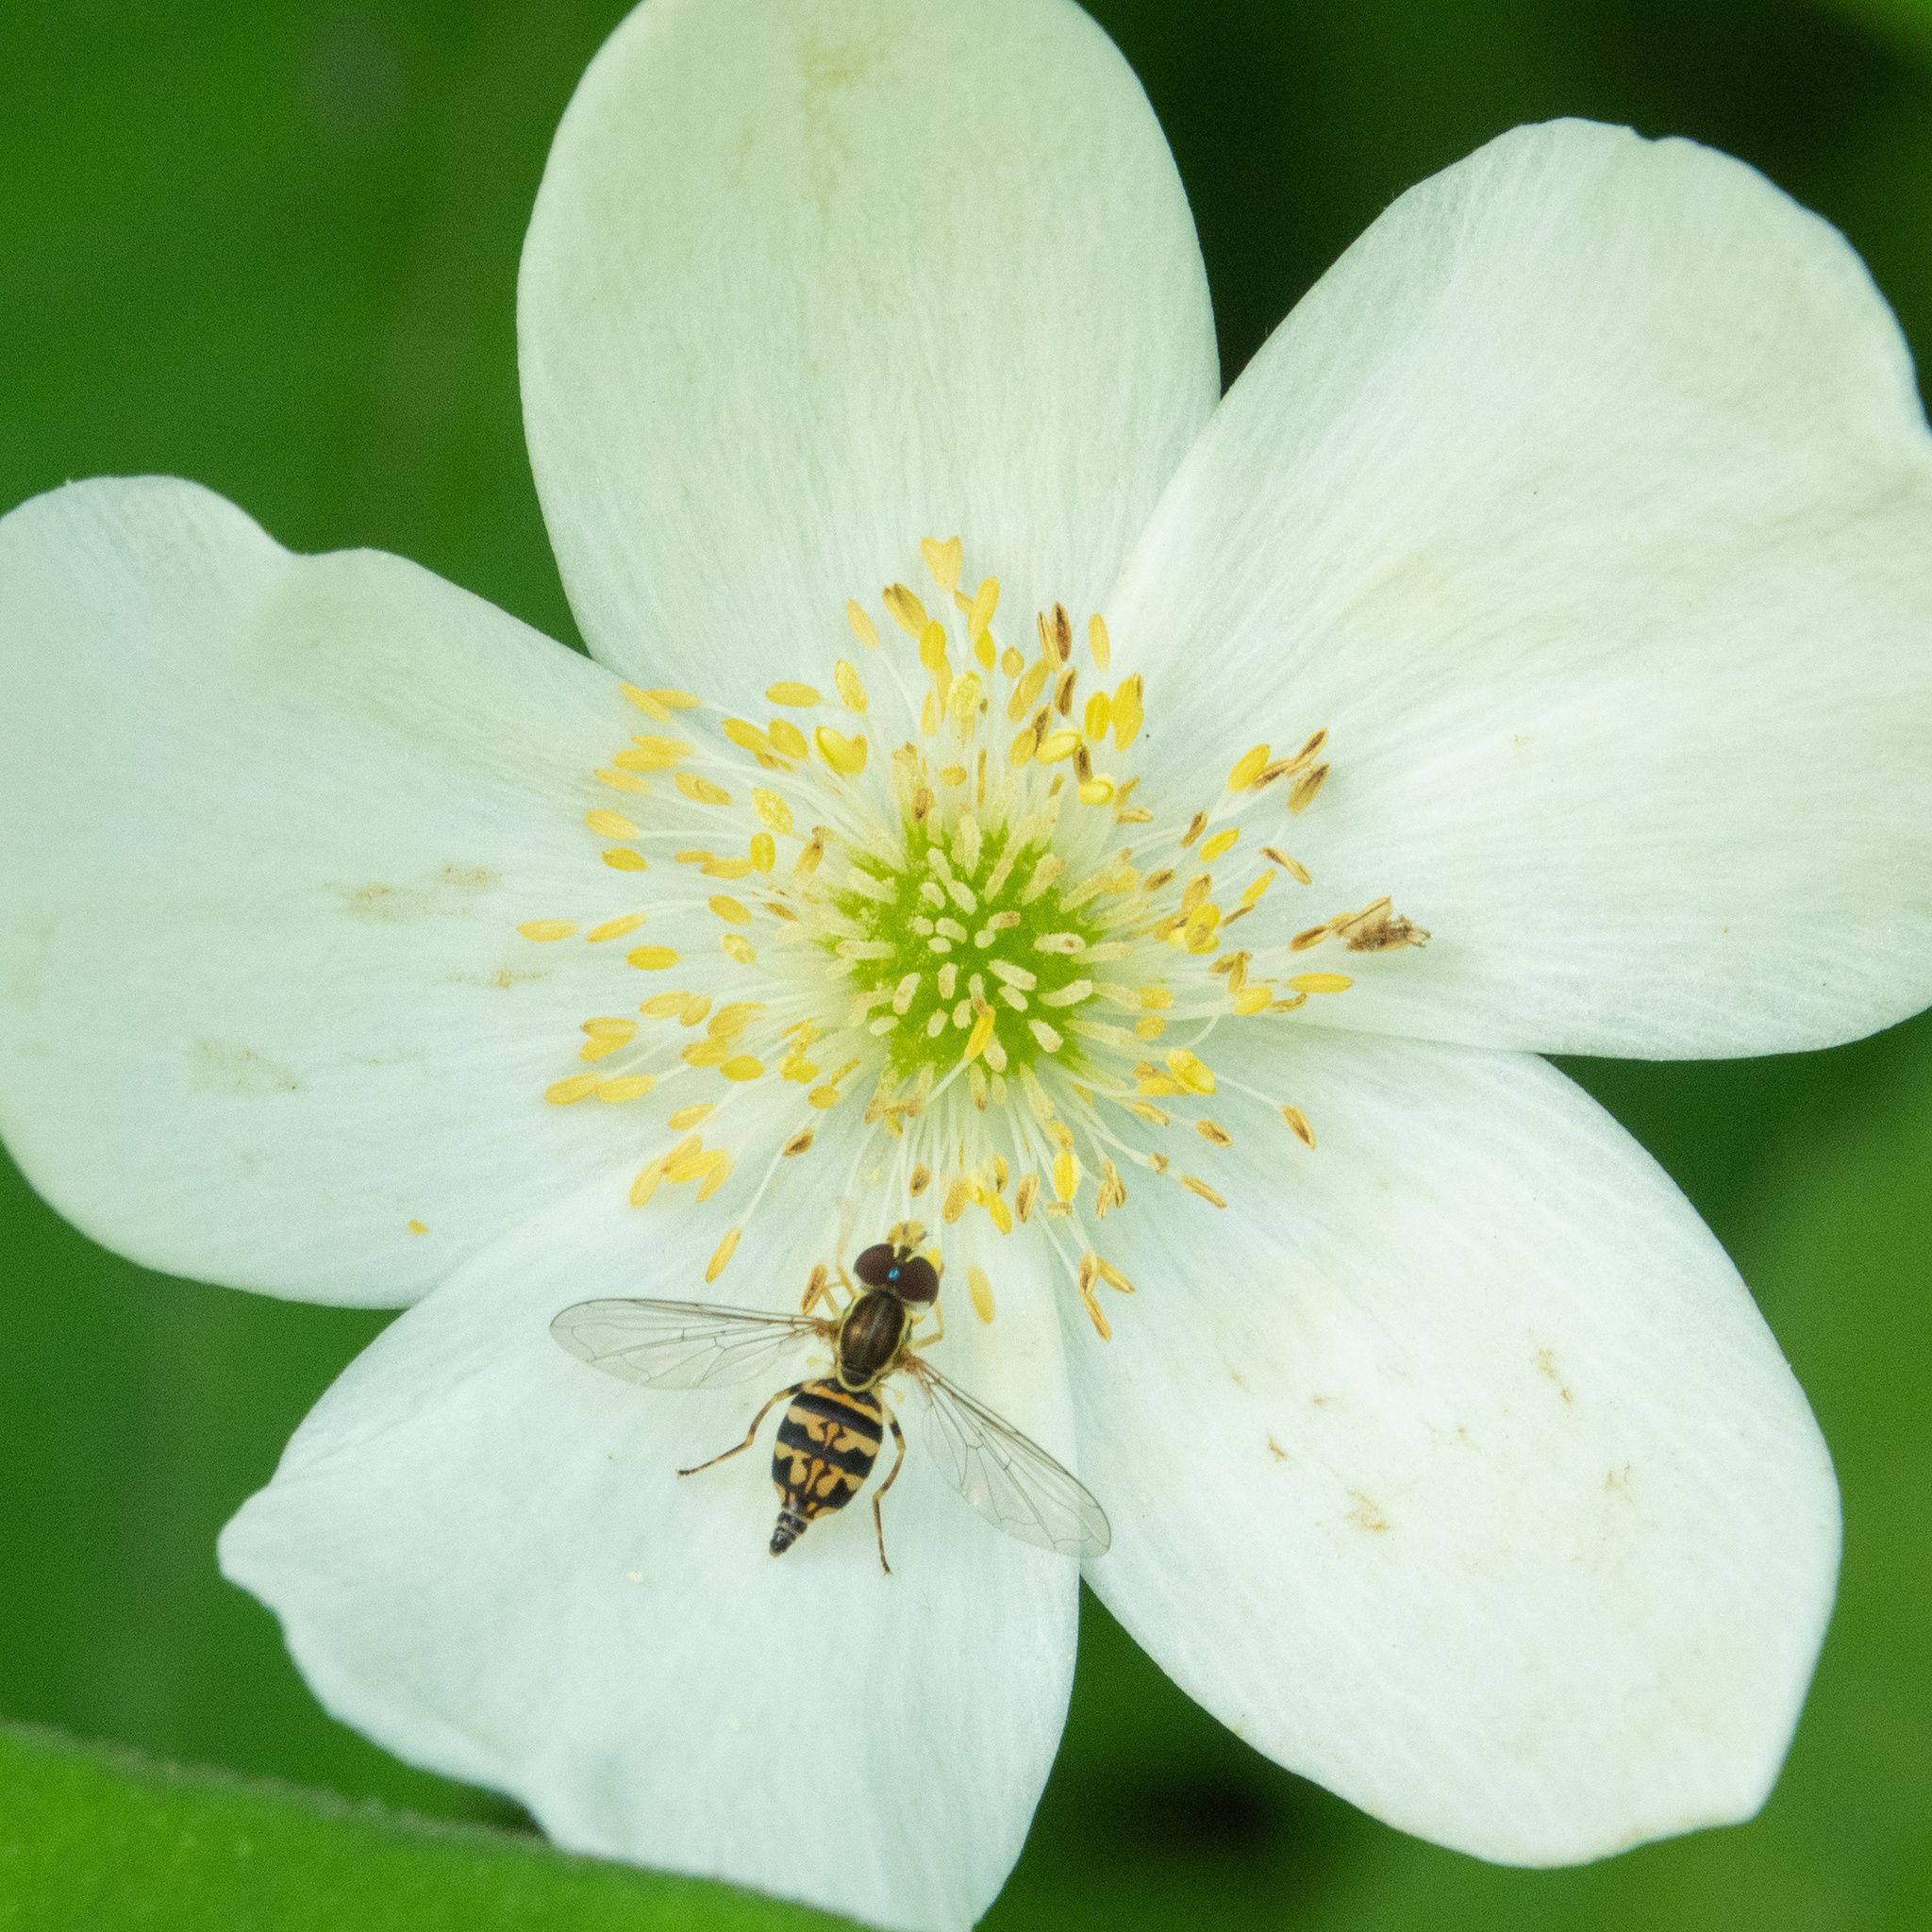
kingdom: Animalia
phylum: Arthropoda
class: Insecta
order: Diptera
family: Syrphidae
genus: Toxomerus
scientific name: Toxomerus geminatus
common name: Eastern calligrapher
